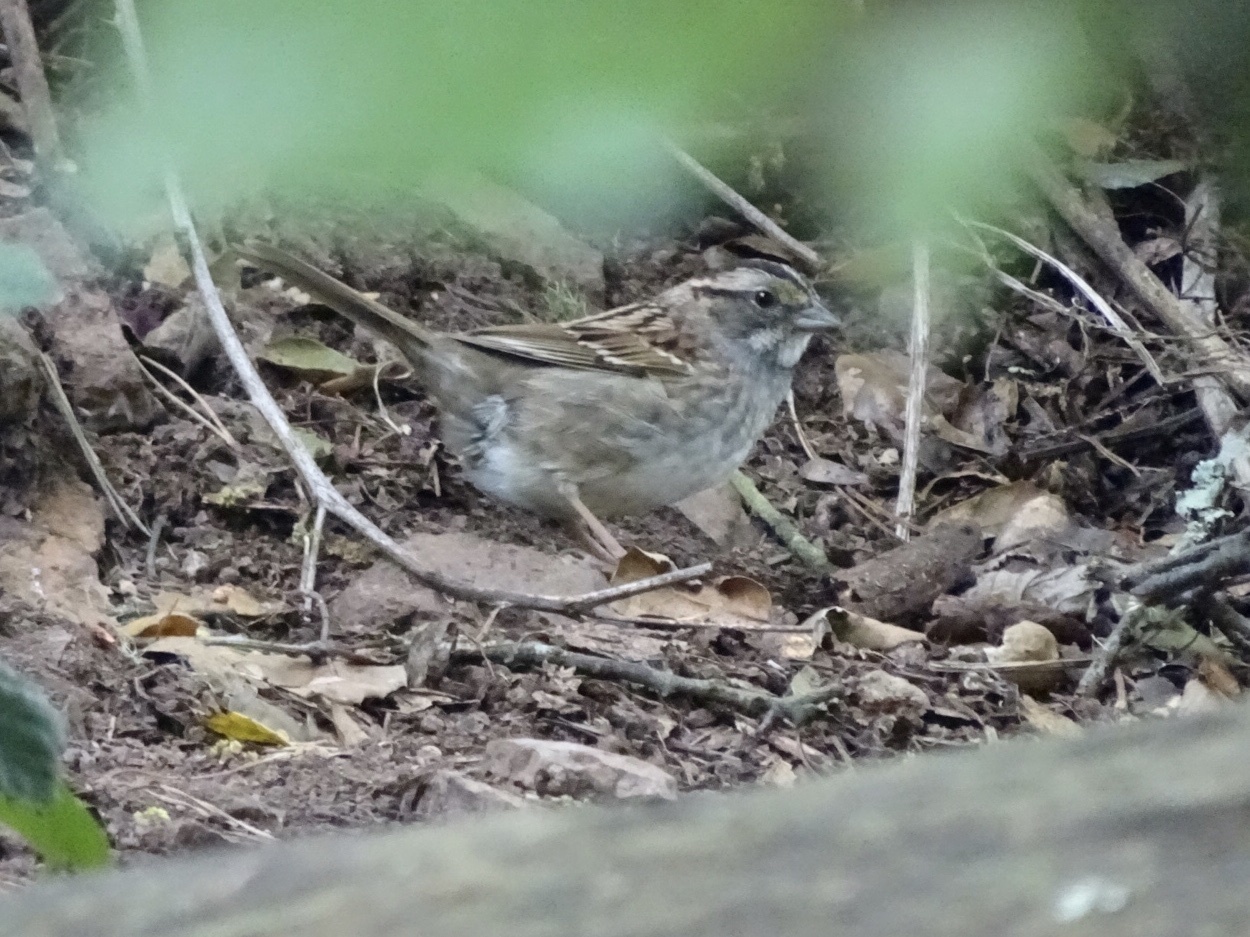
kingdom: Animalia
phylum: Chordata
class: Aves
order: Passeriformes
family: Passerellidae
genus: Zonotrichia
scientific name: Zonotrichia albicollis
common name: White-throated sparrow
